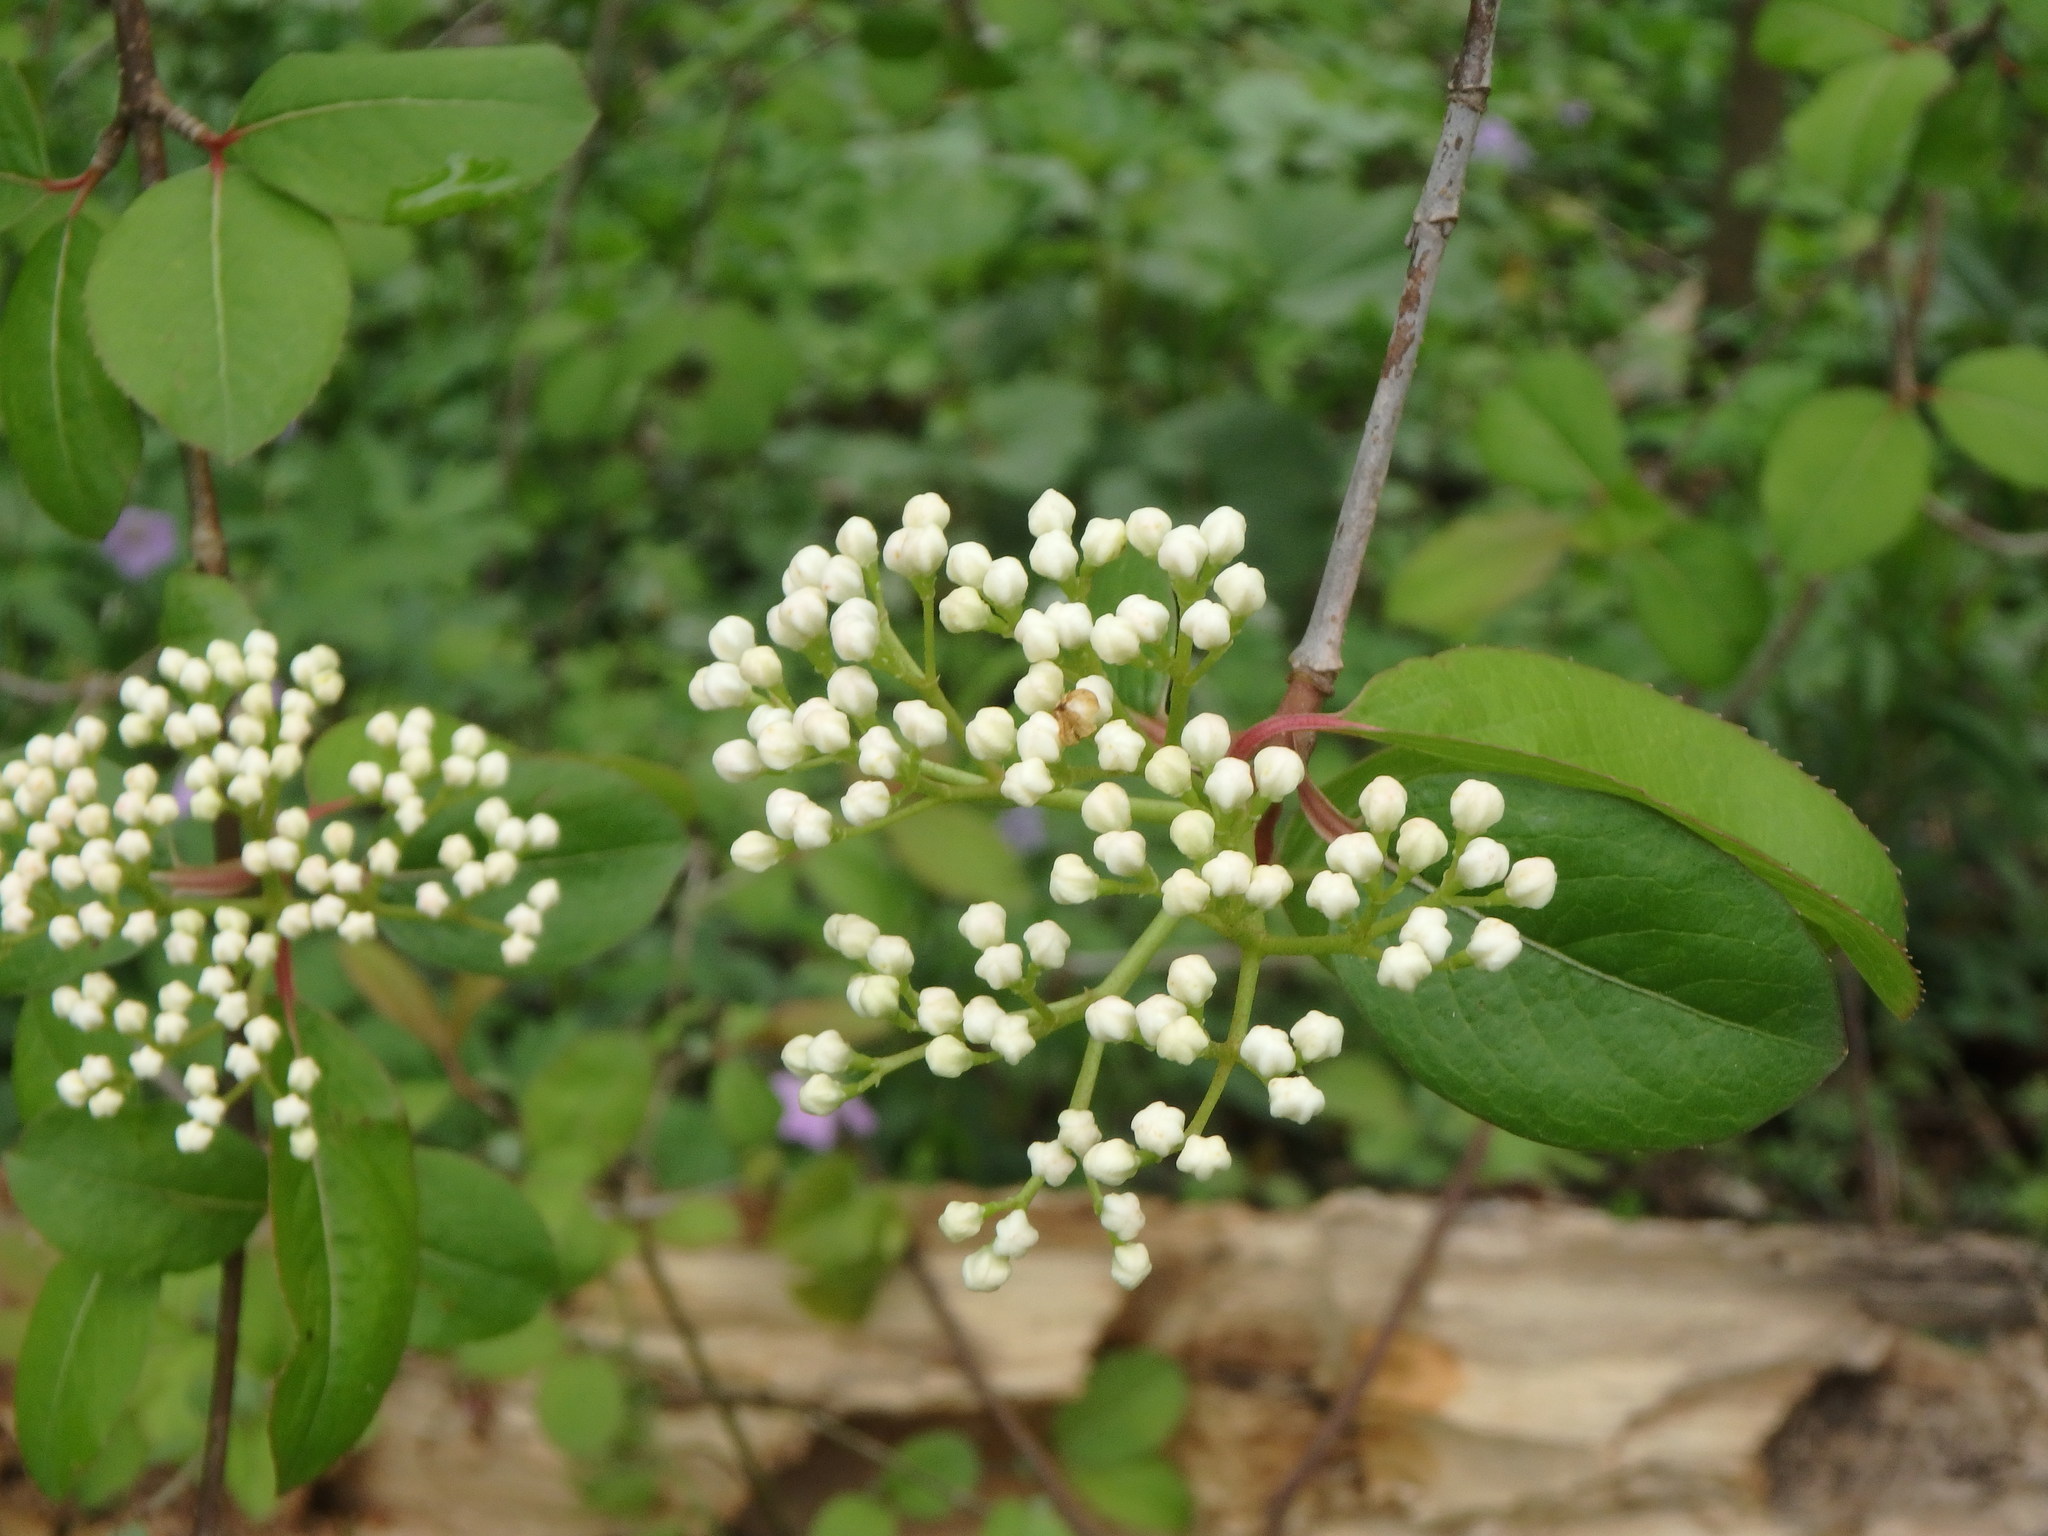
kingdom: Plantae
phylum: Tracheophyta
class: Magnoliopsida
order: Dipsacales
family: Viburnaceae
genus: Viburnum
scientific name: Viburnum prunifolium
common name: Black haw
